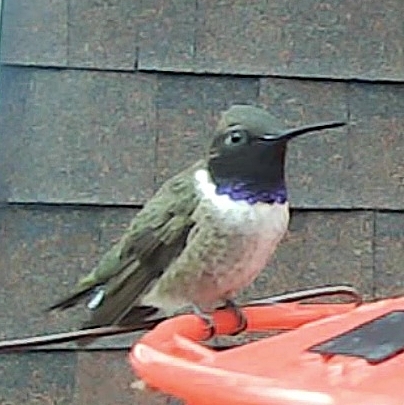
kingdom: Animalia
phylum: Chordata
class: Aves
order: Apodiformes
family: Trochilidae
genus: Archilochus
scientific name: Archilochus alexandri
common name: Black-chinned hummingbird
